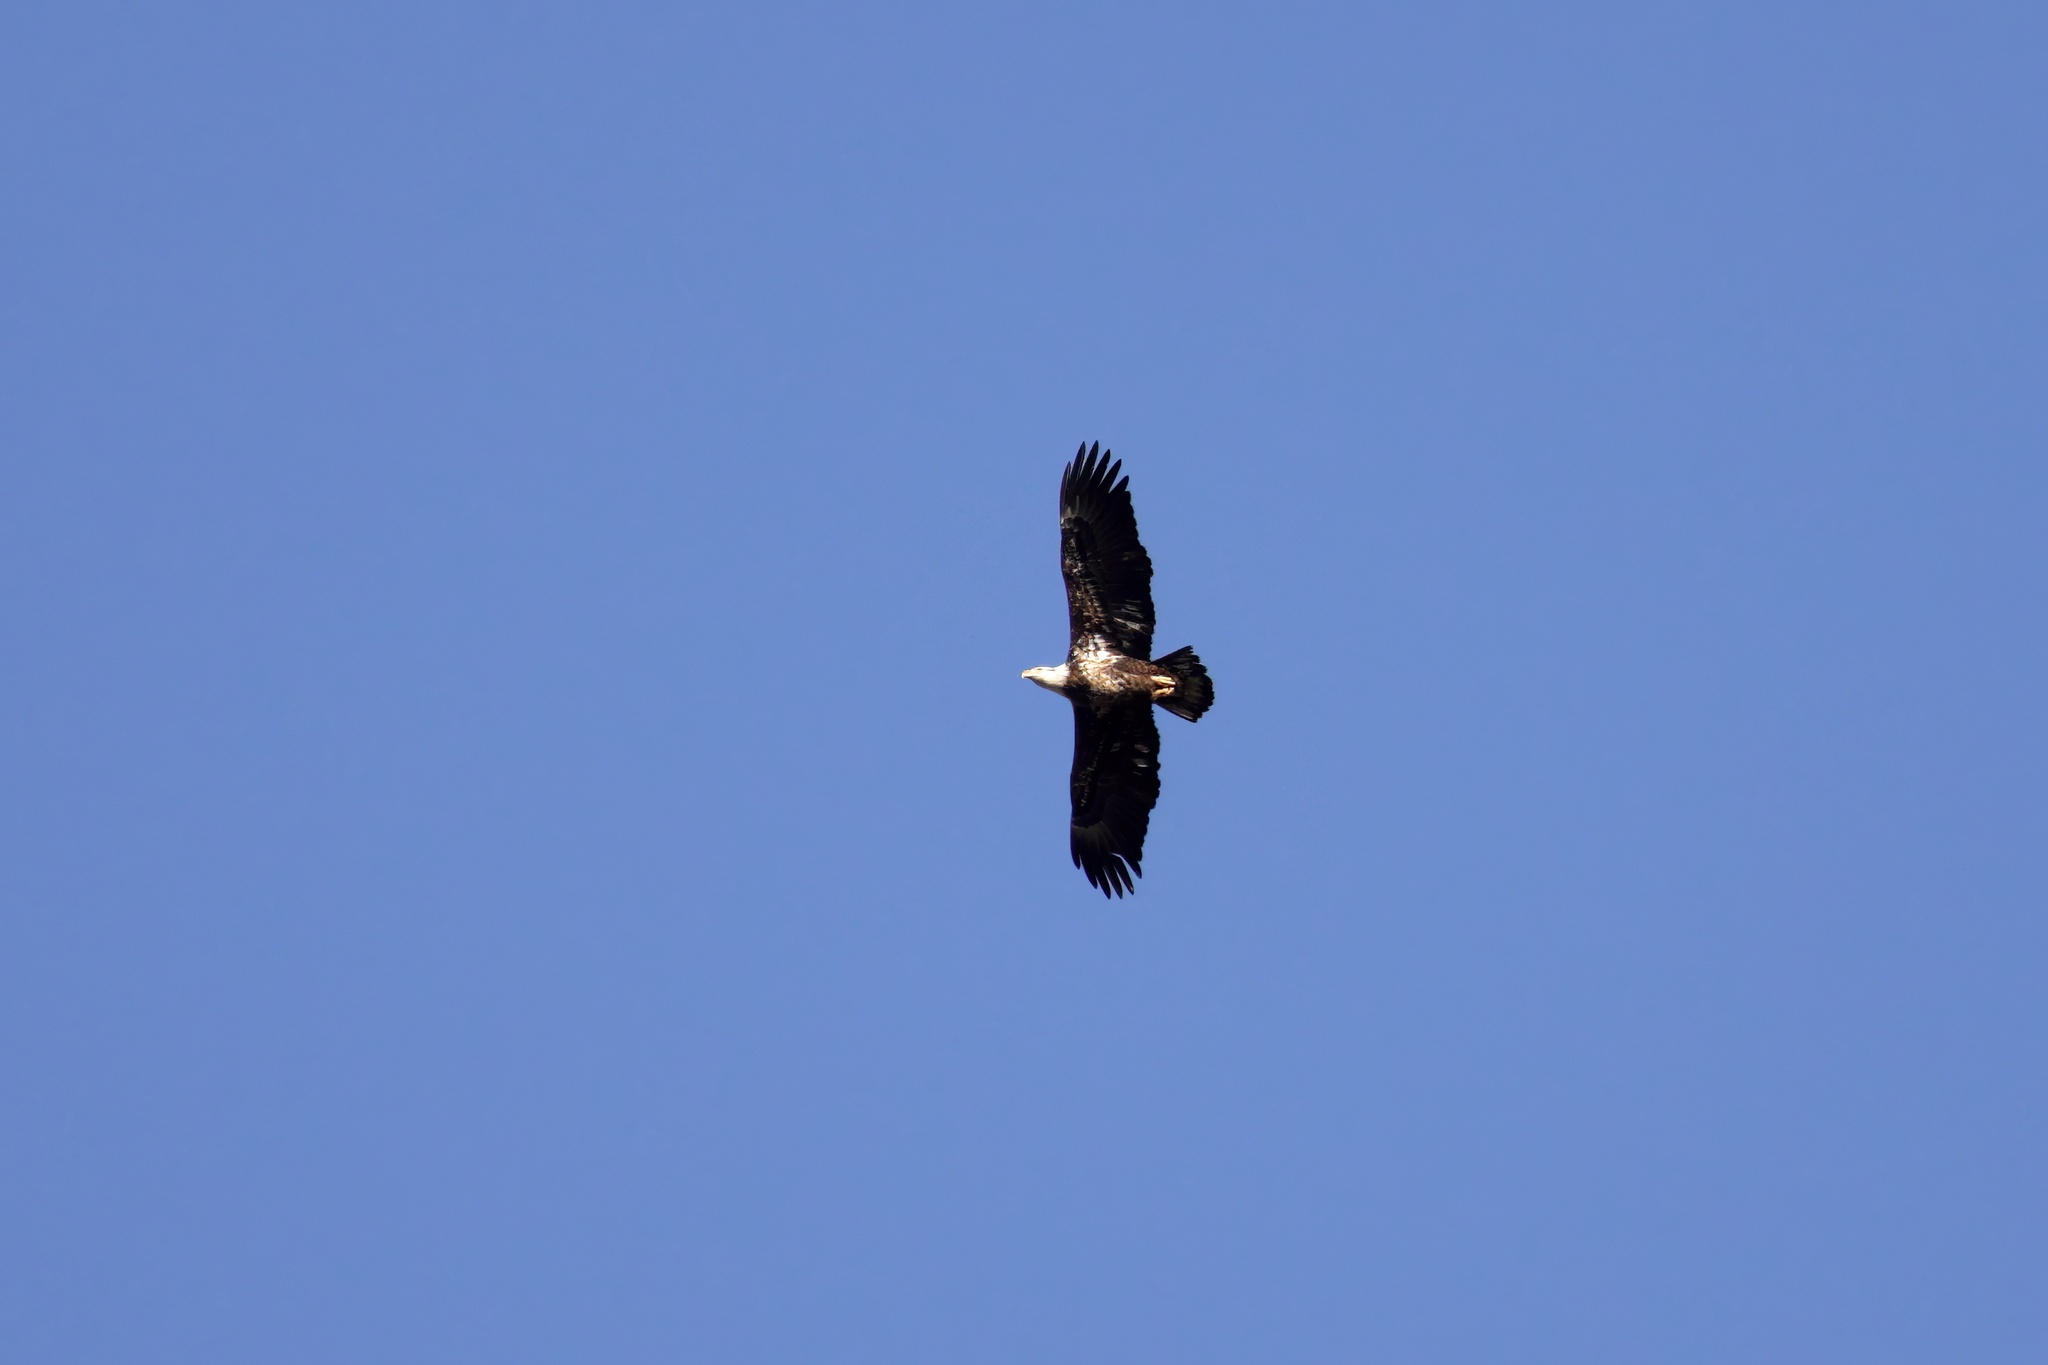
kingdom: Animalia
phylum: Chordata
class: Aves
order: Accipitriformes
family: Accipitridae
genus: Haliaeetus
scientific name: Haliaeetus leucocephalus
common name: Bald eagle
